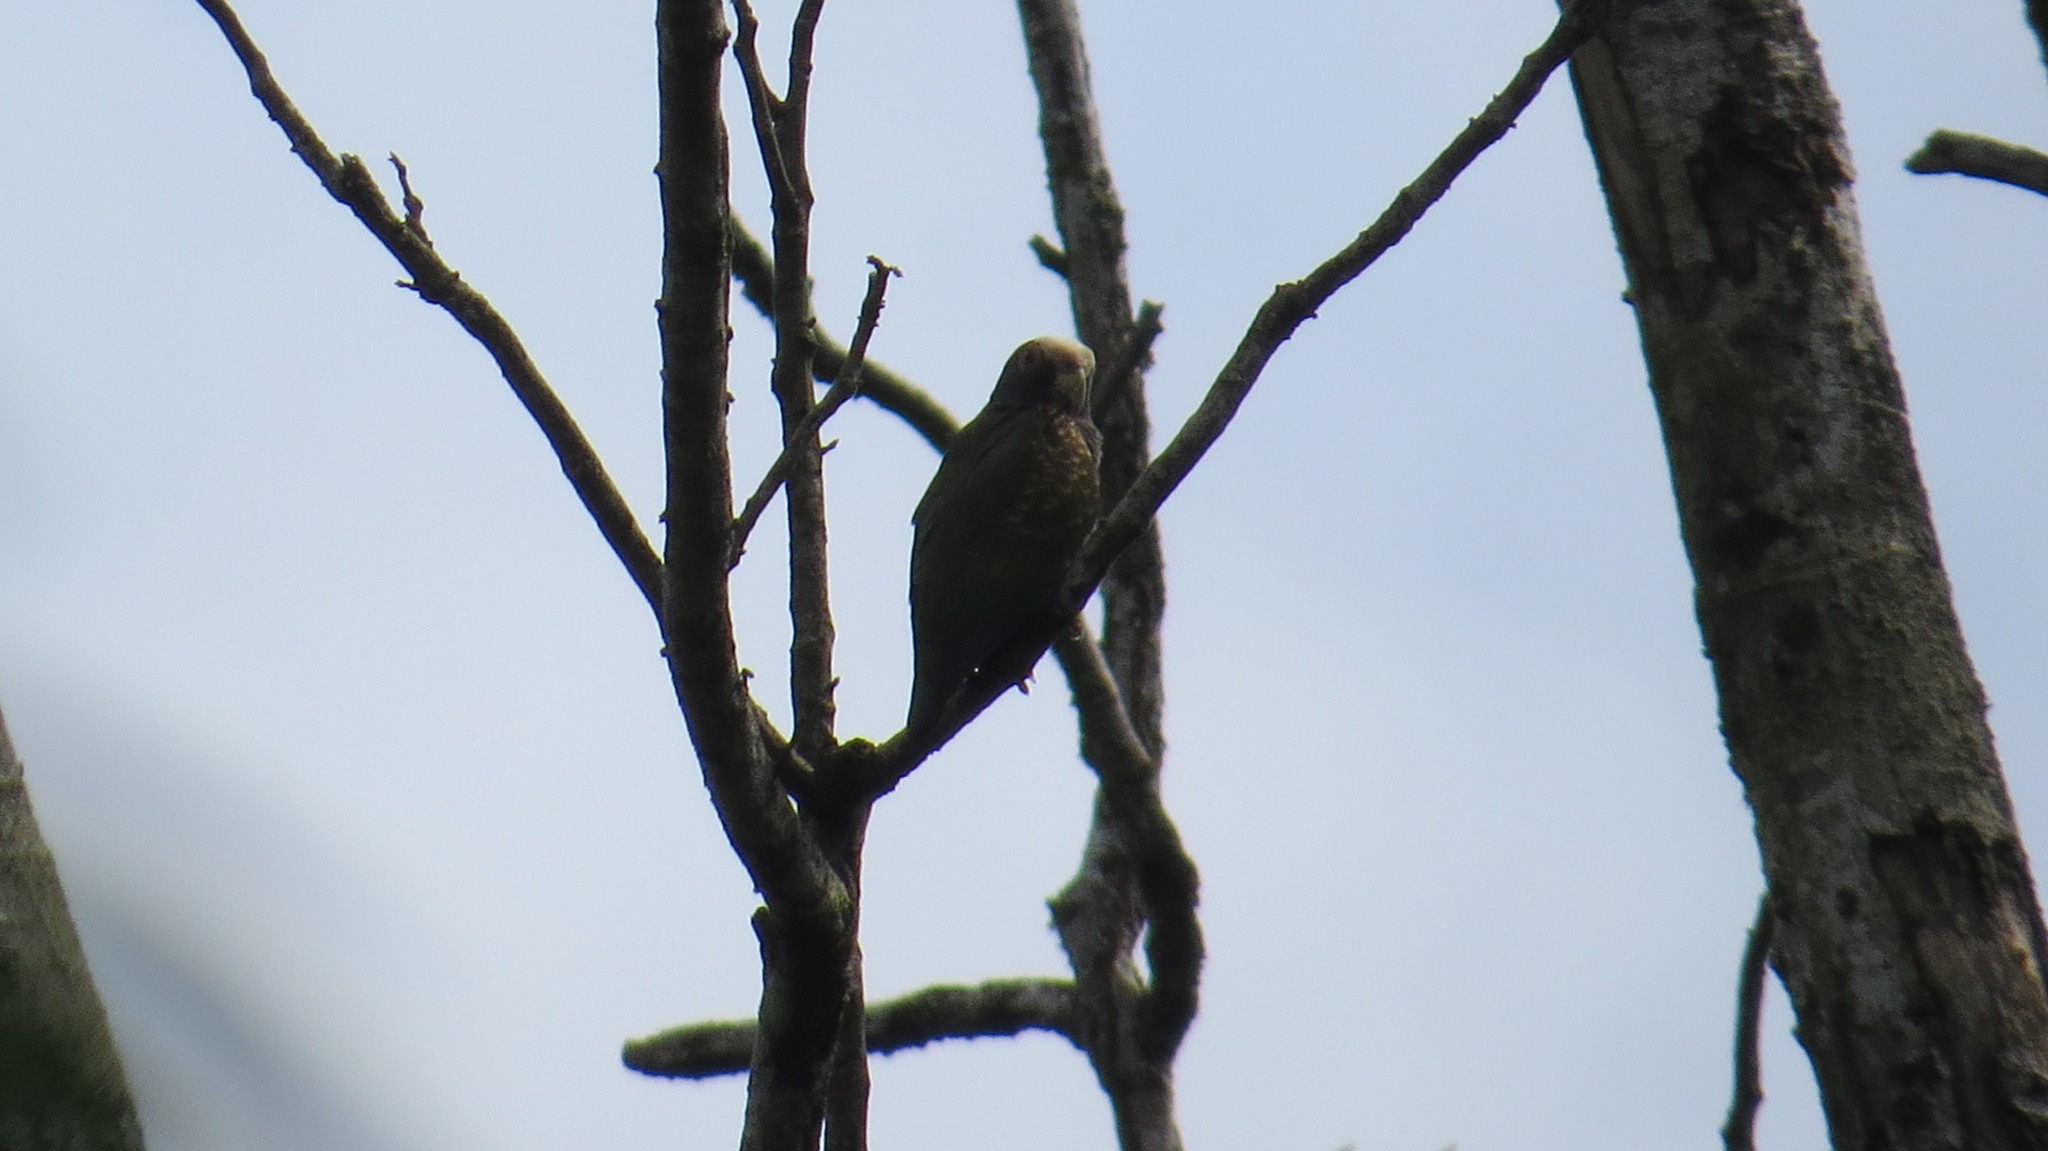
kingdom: Animalia
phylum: Chordata
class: Aves
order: Psittaciformes
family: Psittacidae
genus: Pionus
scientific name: Pionus senilis
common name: White-crowned parrot
